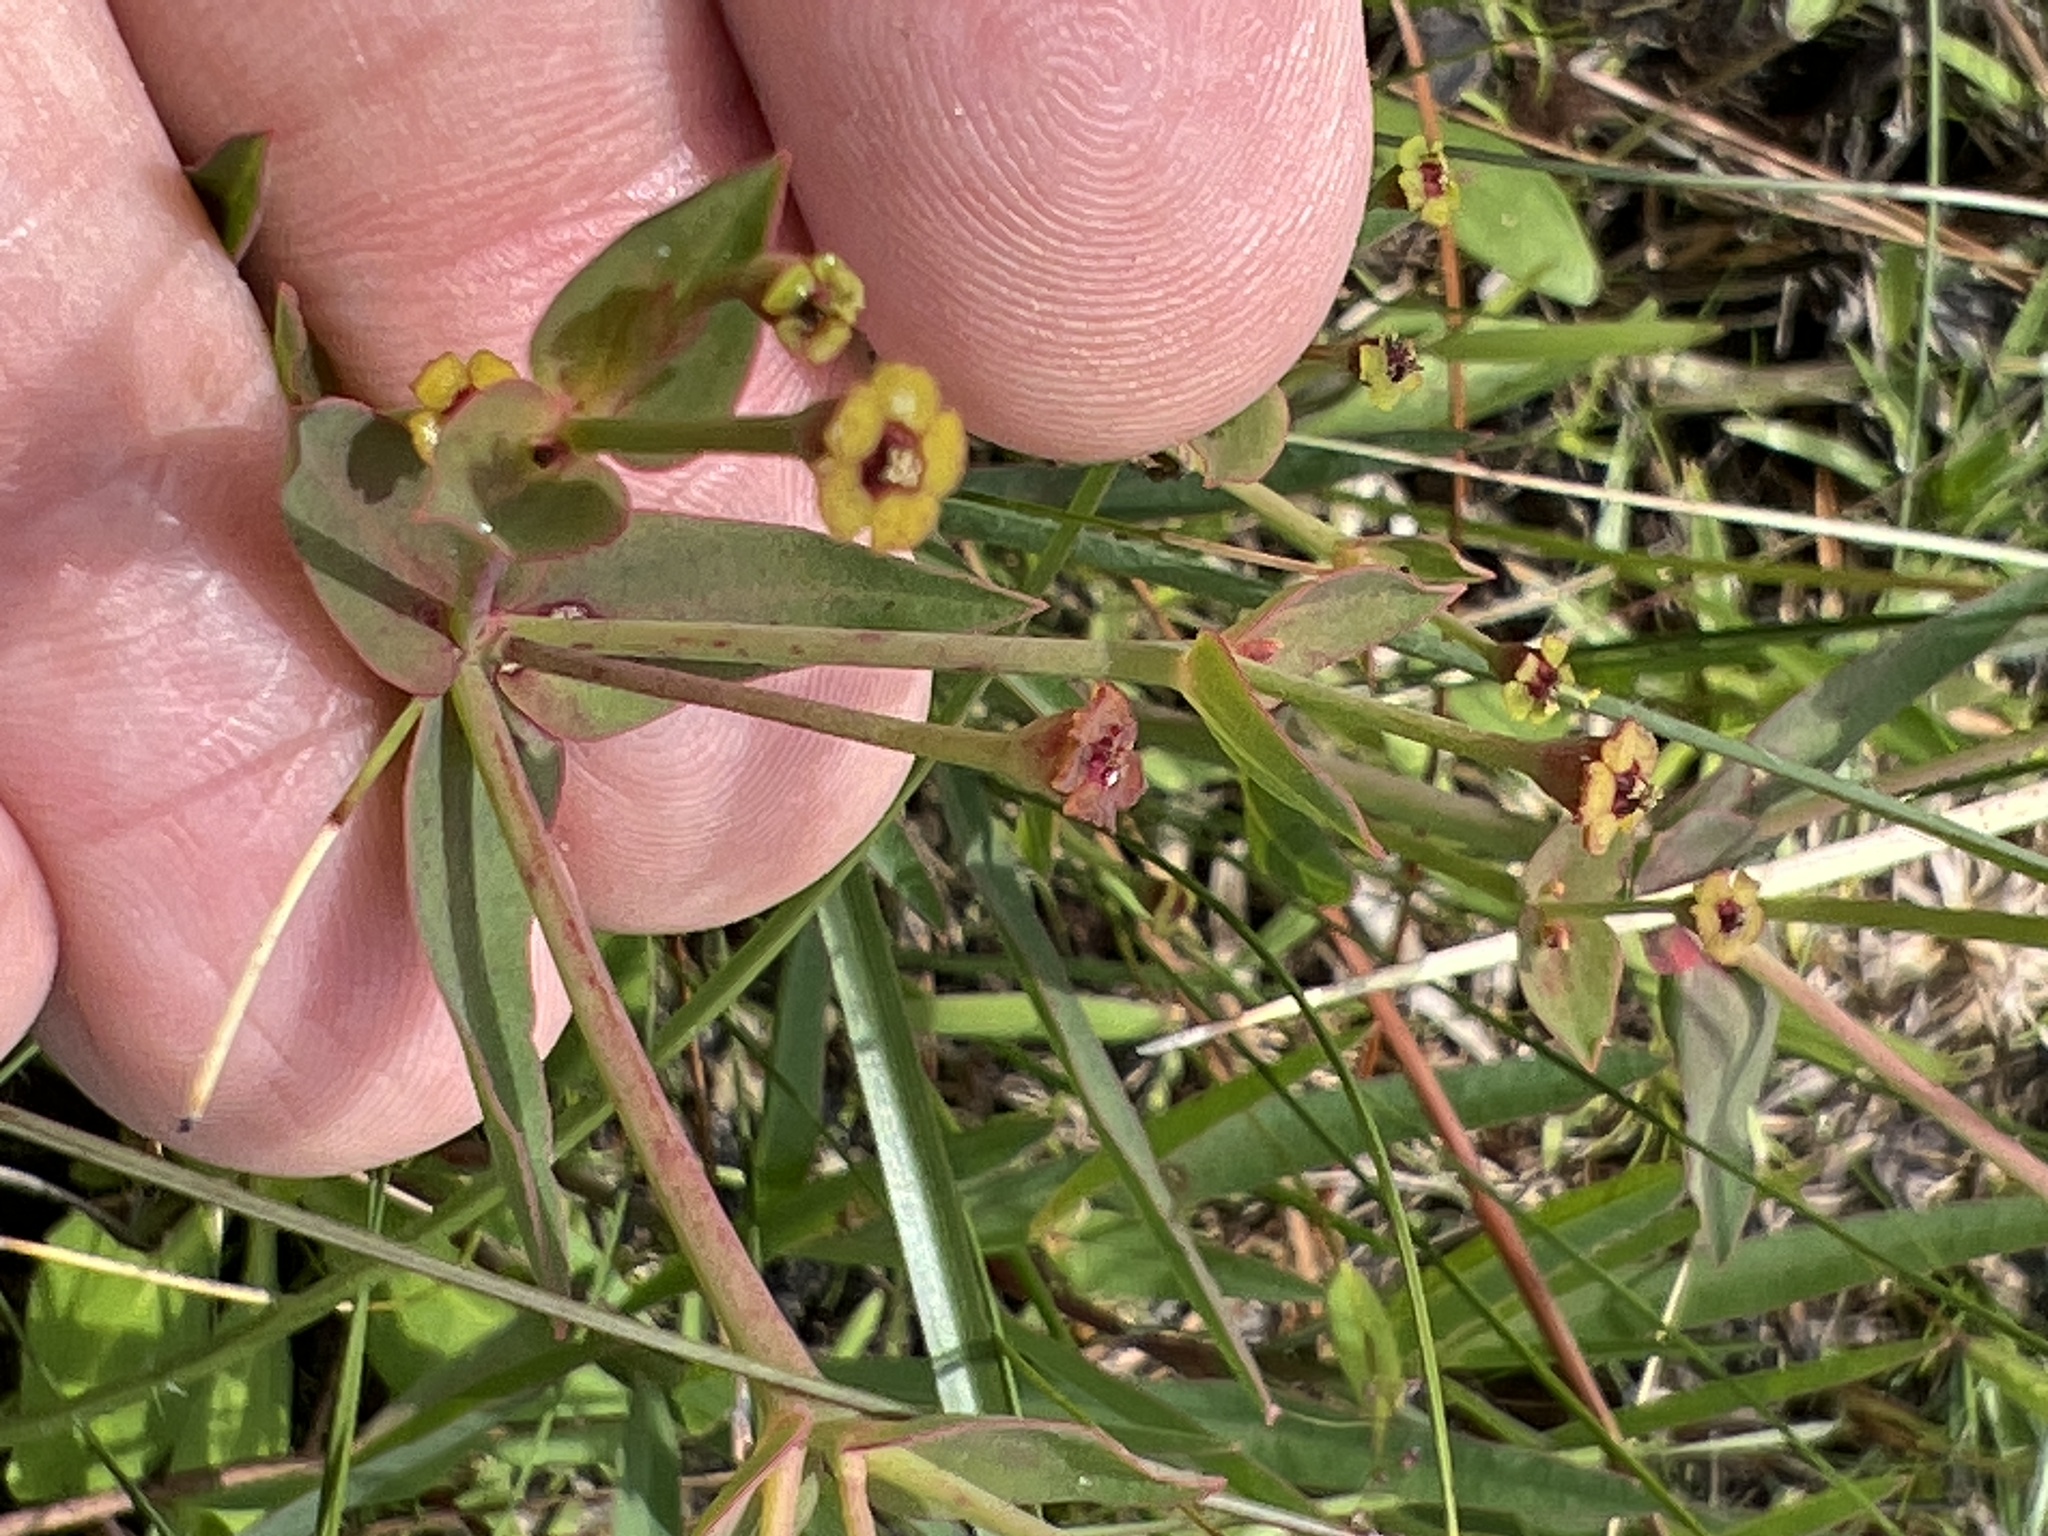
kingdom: Plantae
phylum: Tracheophyta
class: Magnoliopsida
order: Malpighiales
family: Euphorbiaceae
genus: Euphorbia
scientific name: Euphorbia inundata
